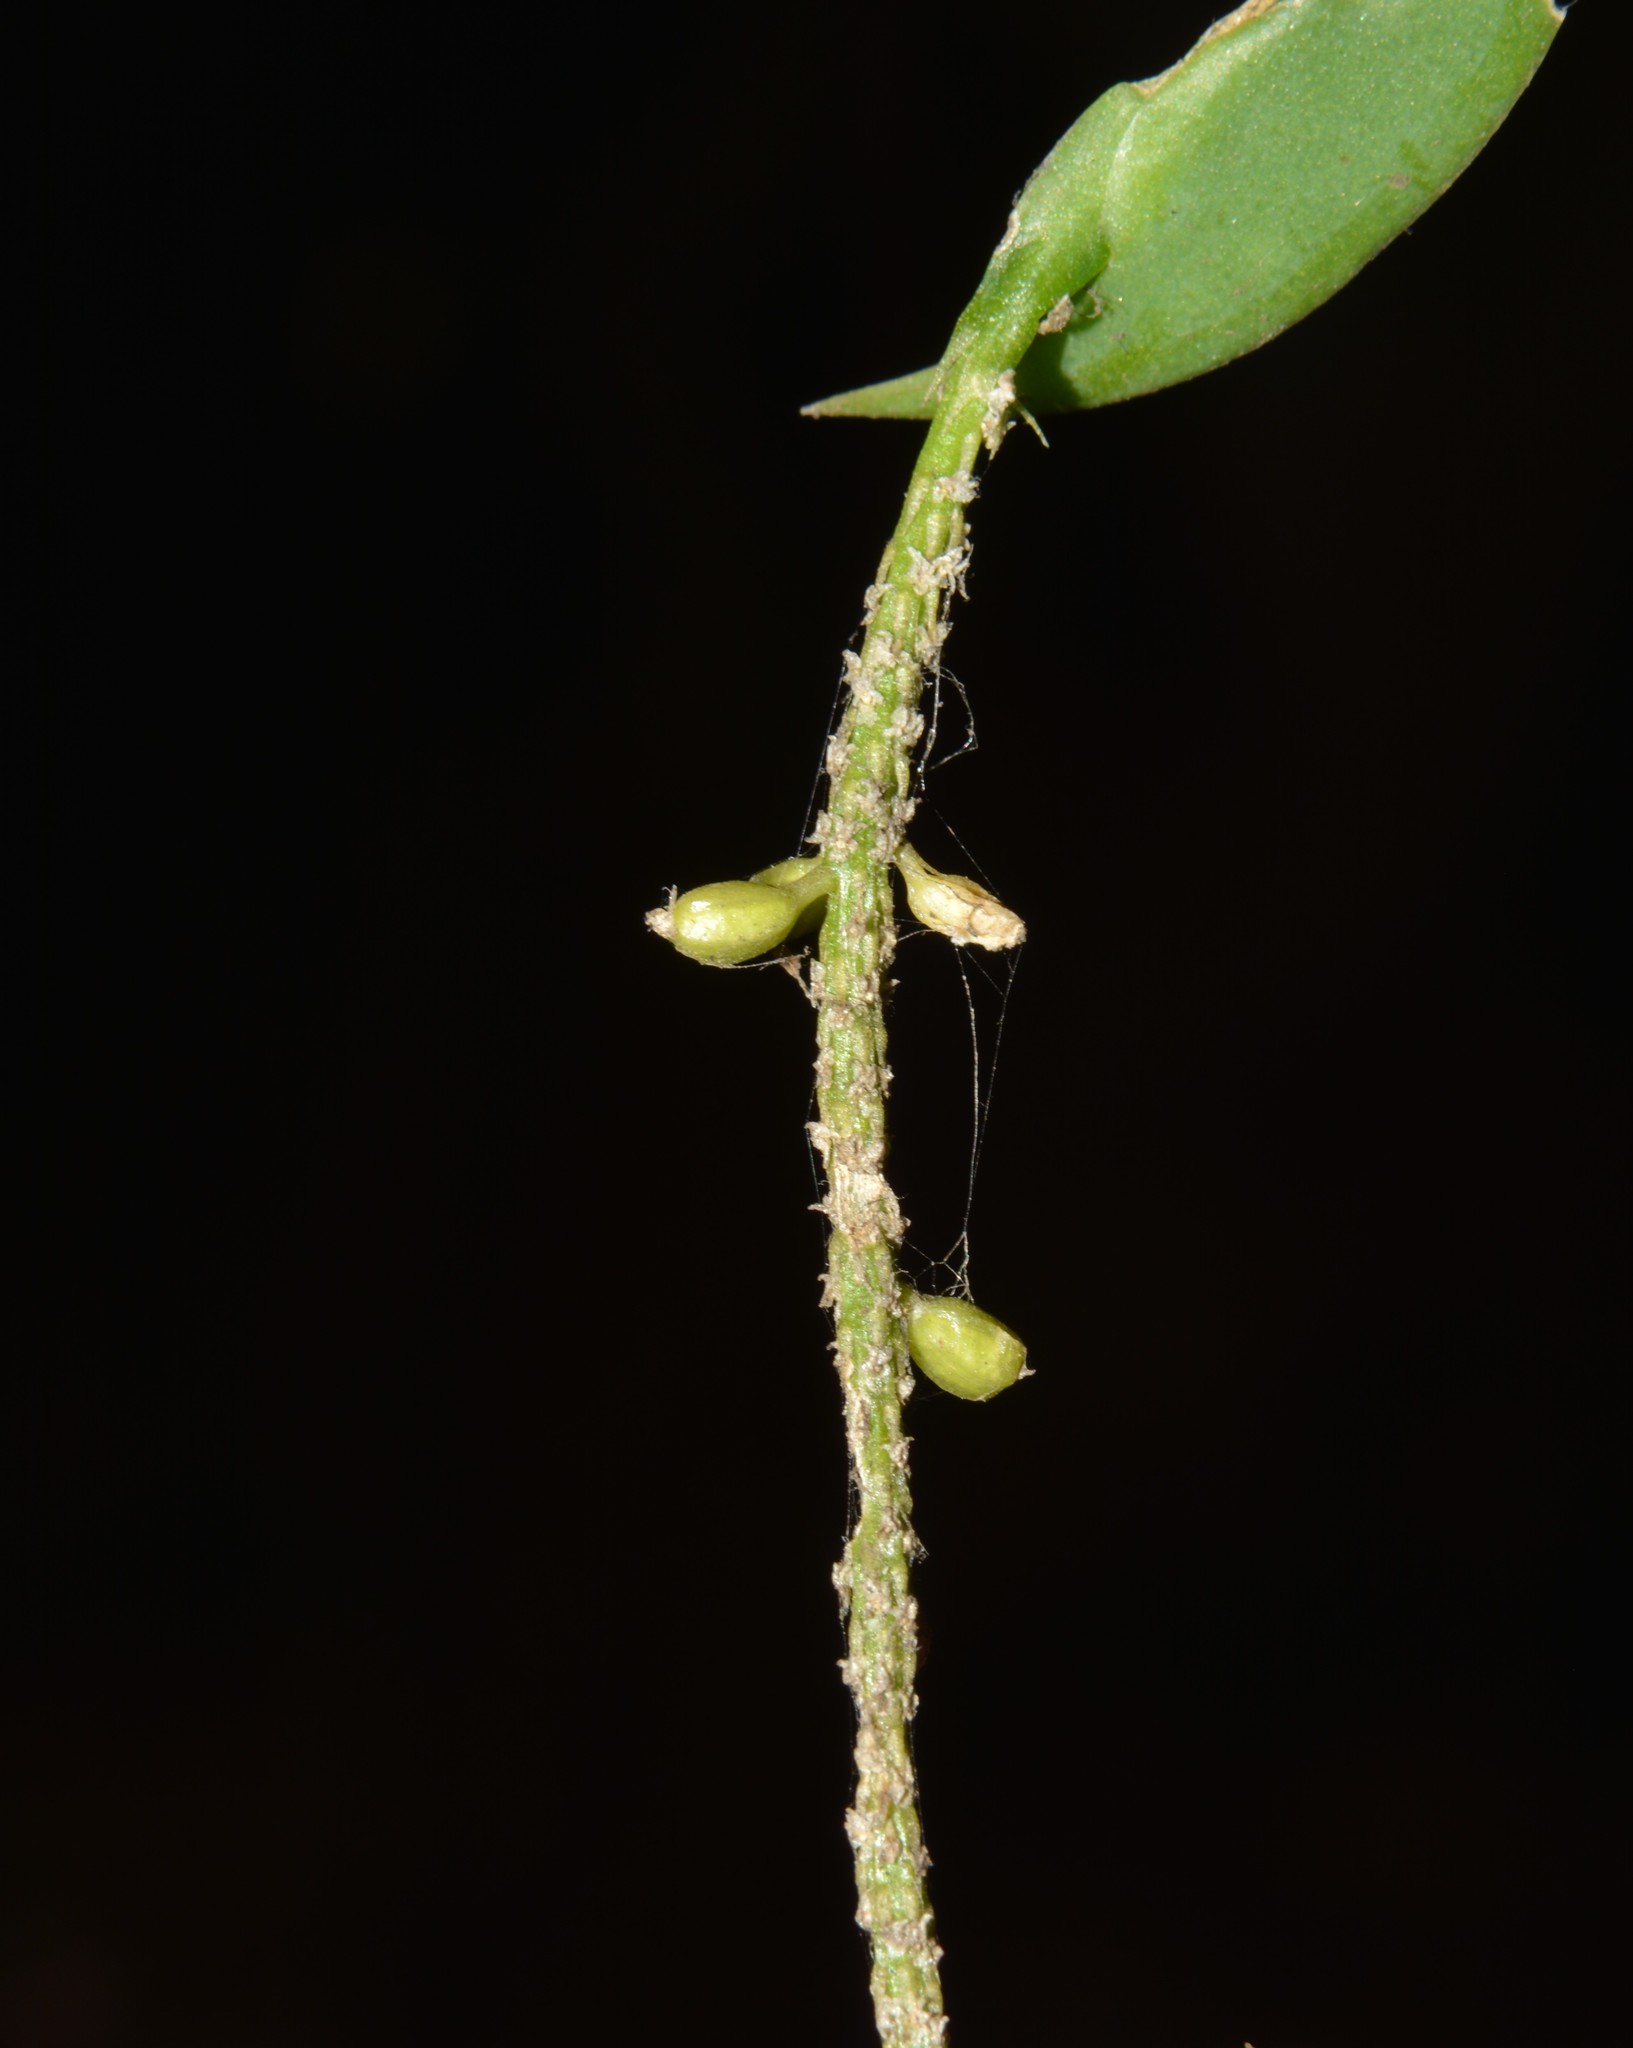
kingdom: Plantae
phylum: Tracheophyta
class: Liliopsida
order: Asparagales
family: Orchidaceae
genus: Oberonia
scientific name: Oberonia falconeri
